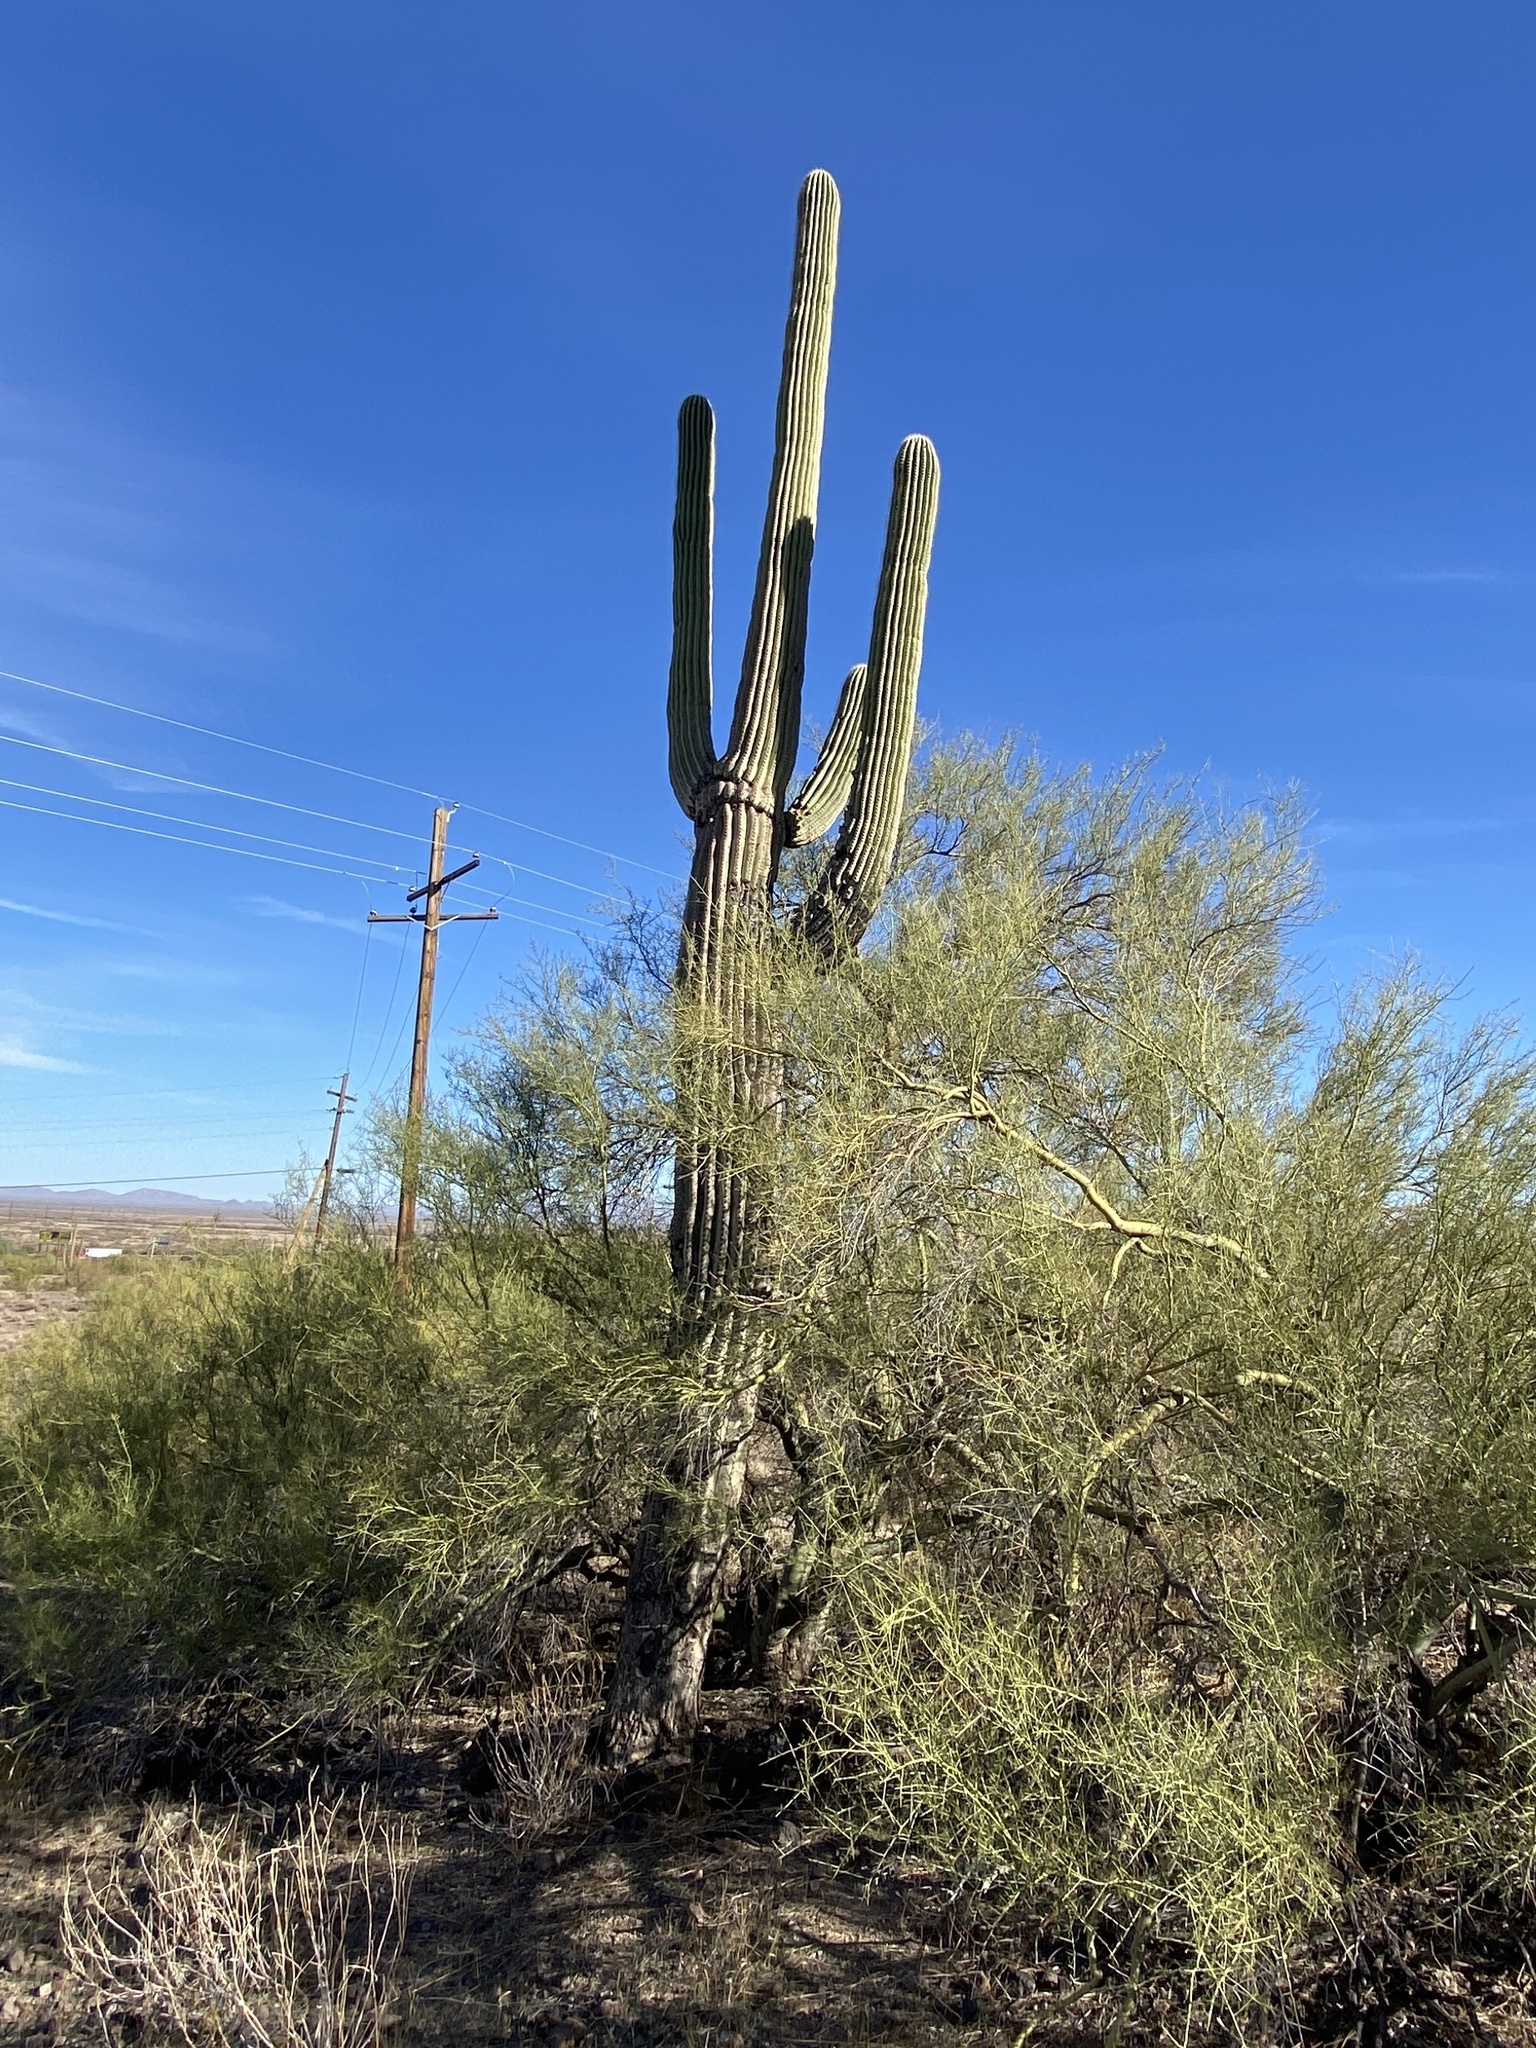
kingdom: Plantae
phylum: Tracheophyta
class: Magnoliopsida
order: Caryophyllales
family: Cactaceae
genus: Carnegiea
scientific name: Carnegiea gigantea
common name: Saguaro
